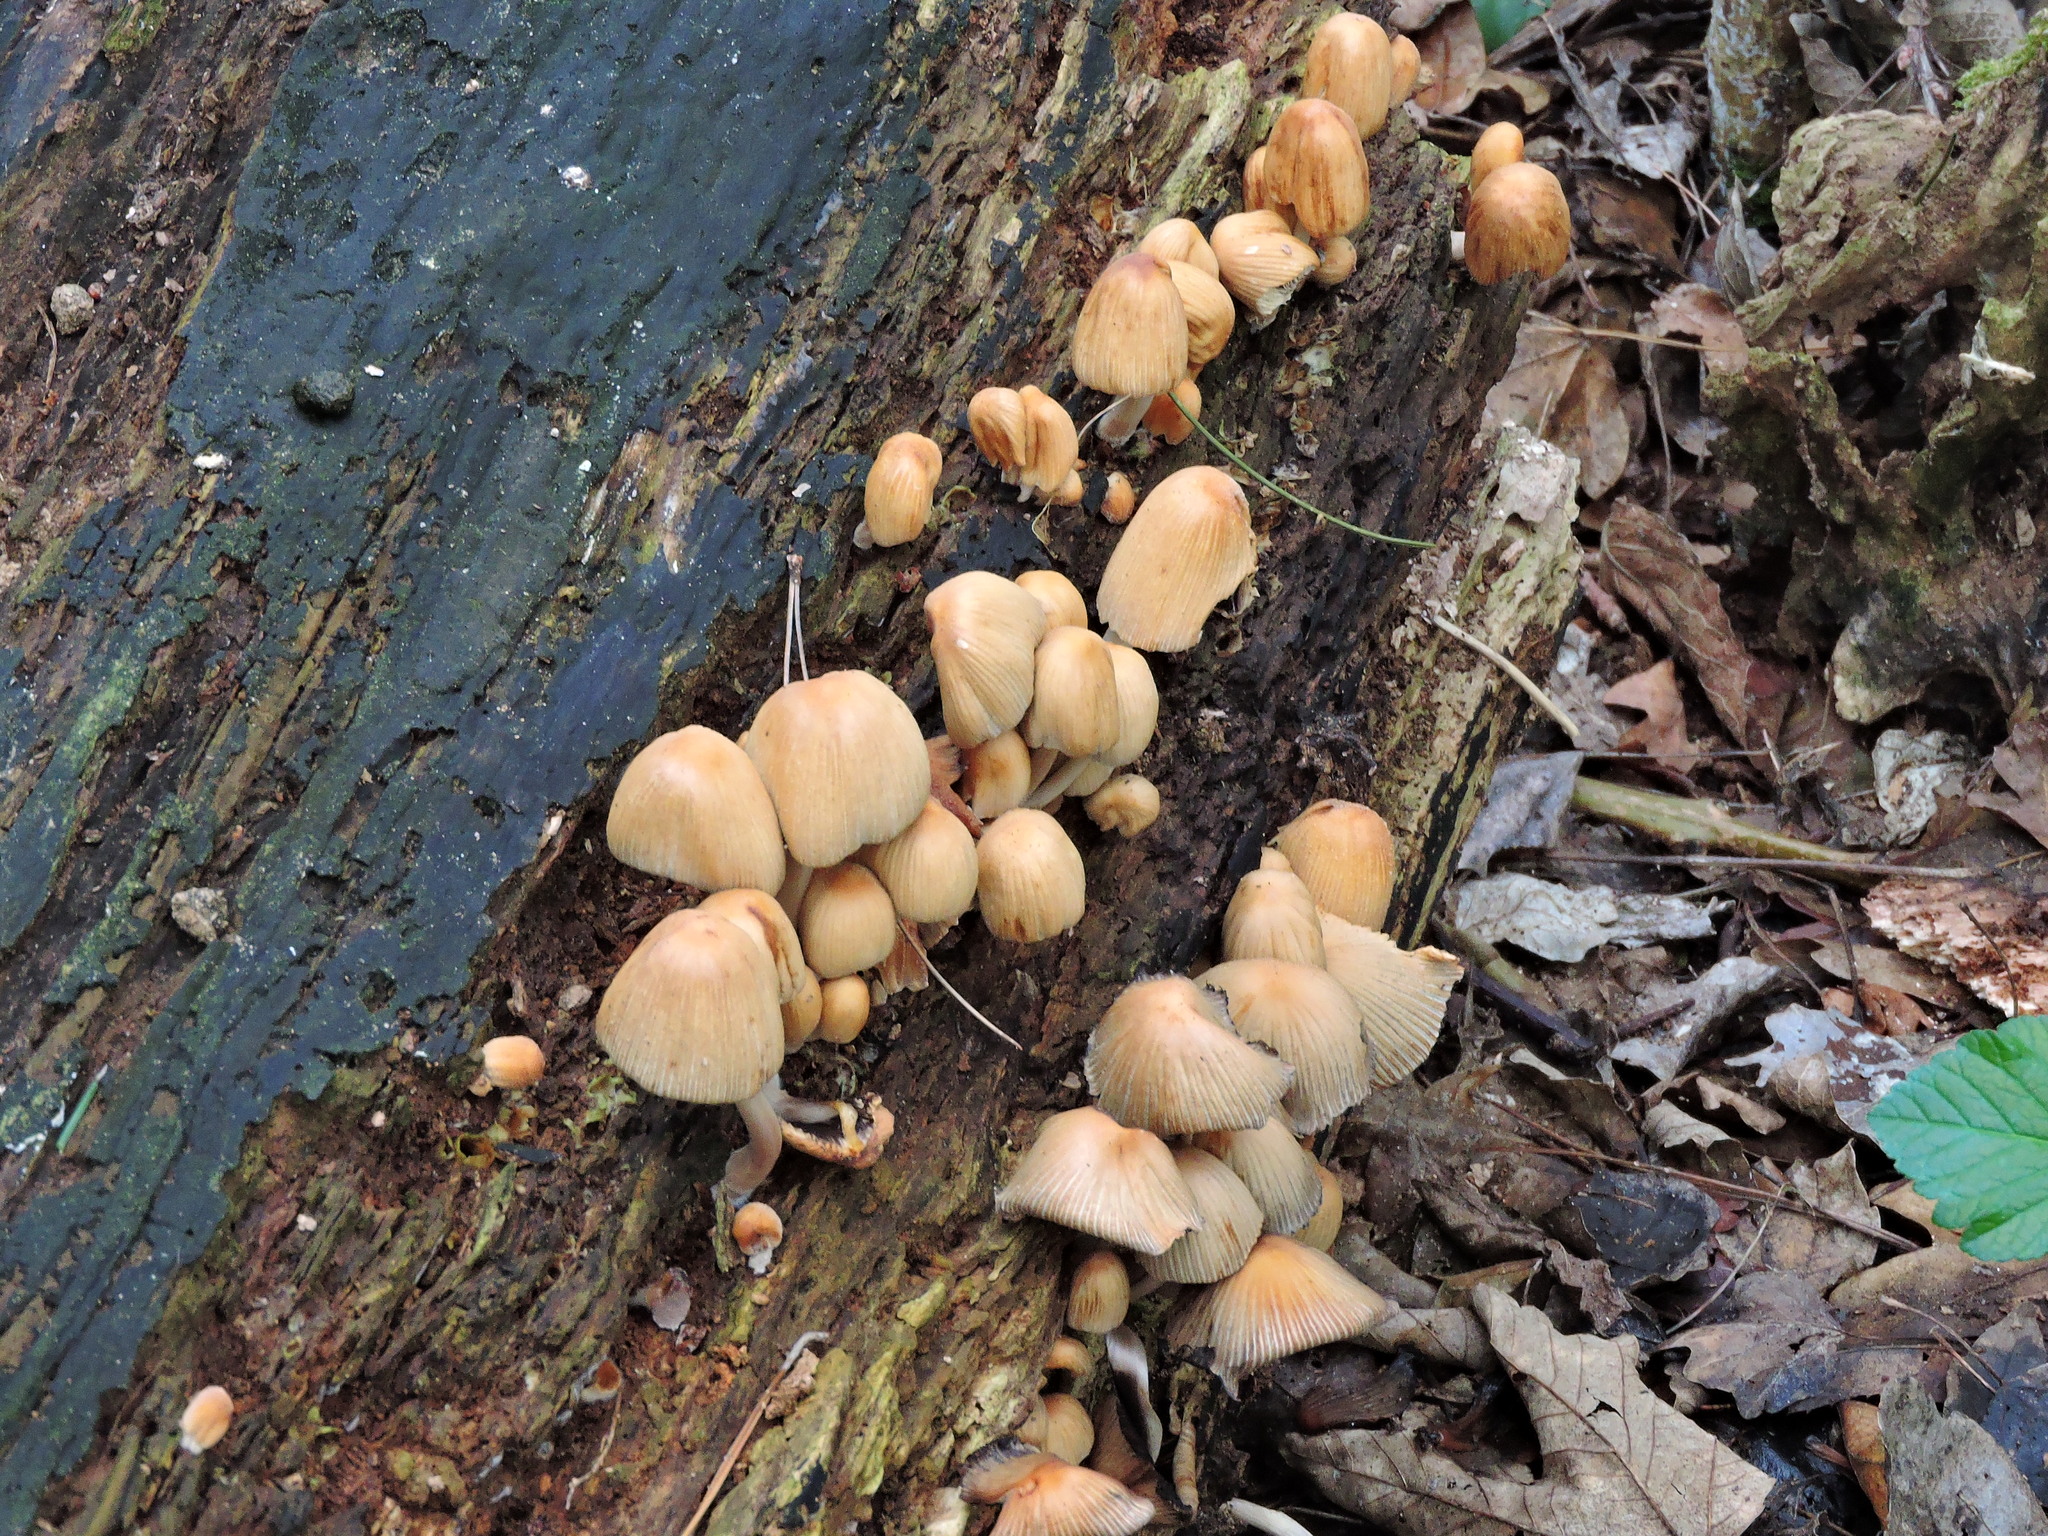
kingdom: Fungi
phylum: Basidiomycota
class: Agaricomycetes
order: Agaricales
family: Psathyrellaceae
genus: Coprinellus
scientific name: Coprinellus micaceus
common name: Glistening ink-cap
